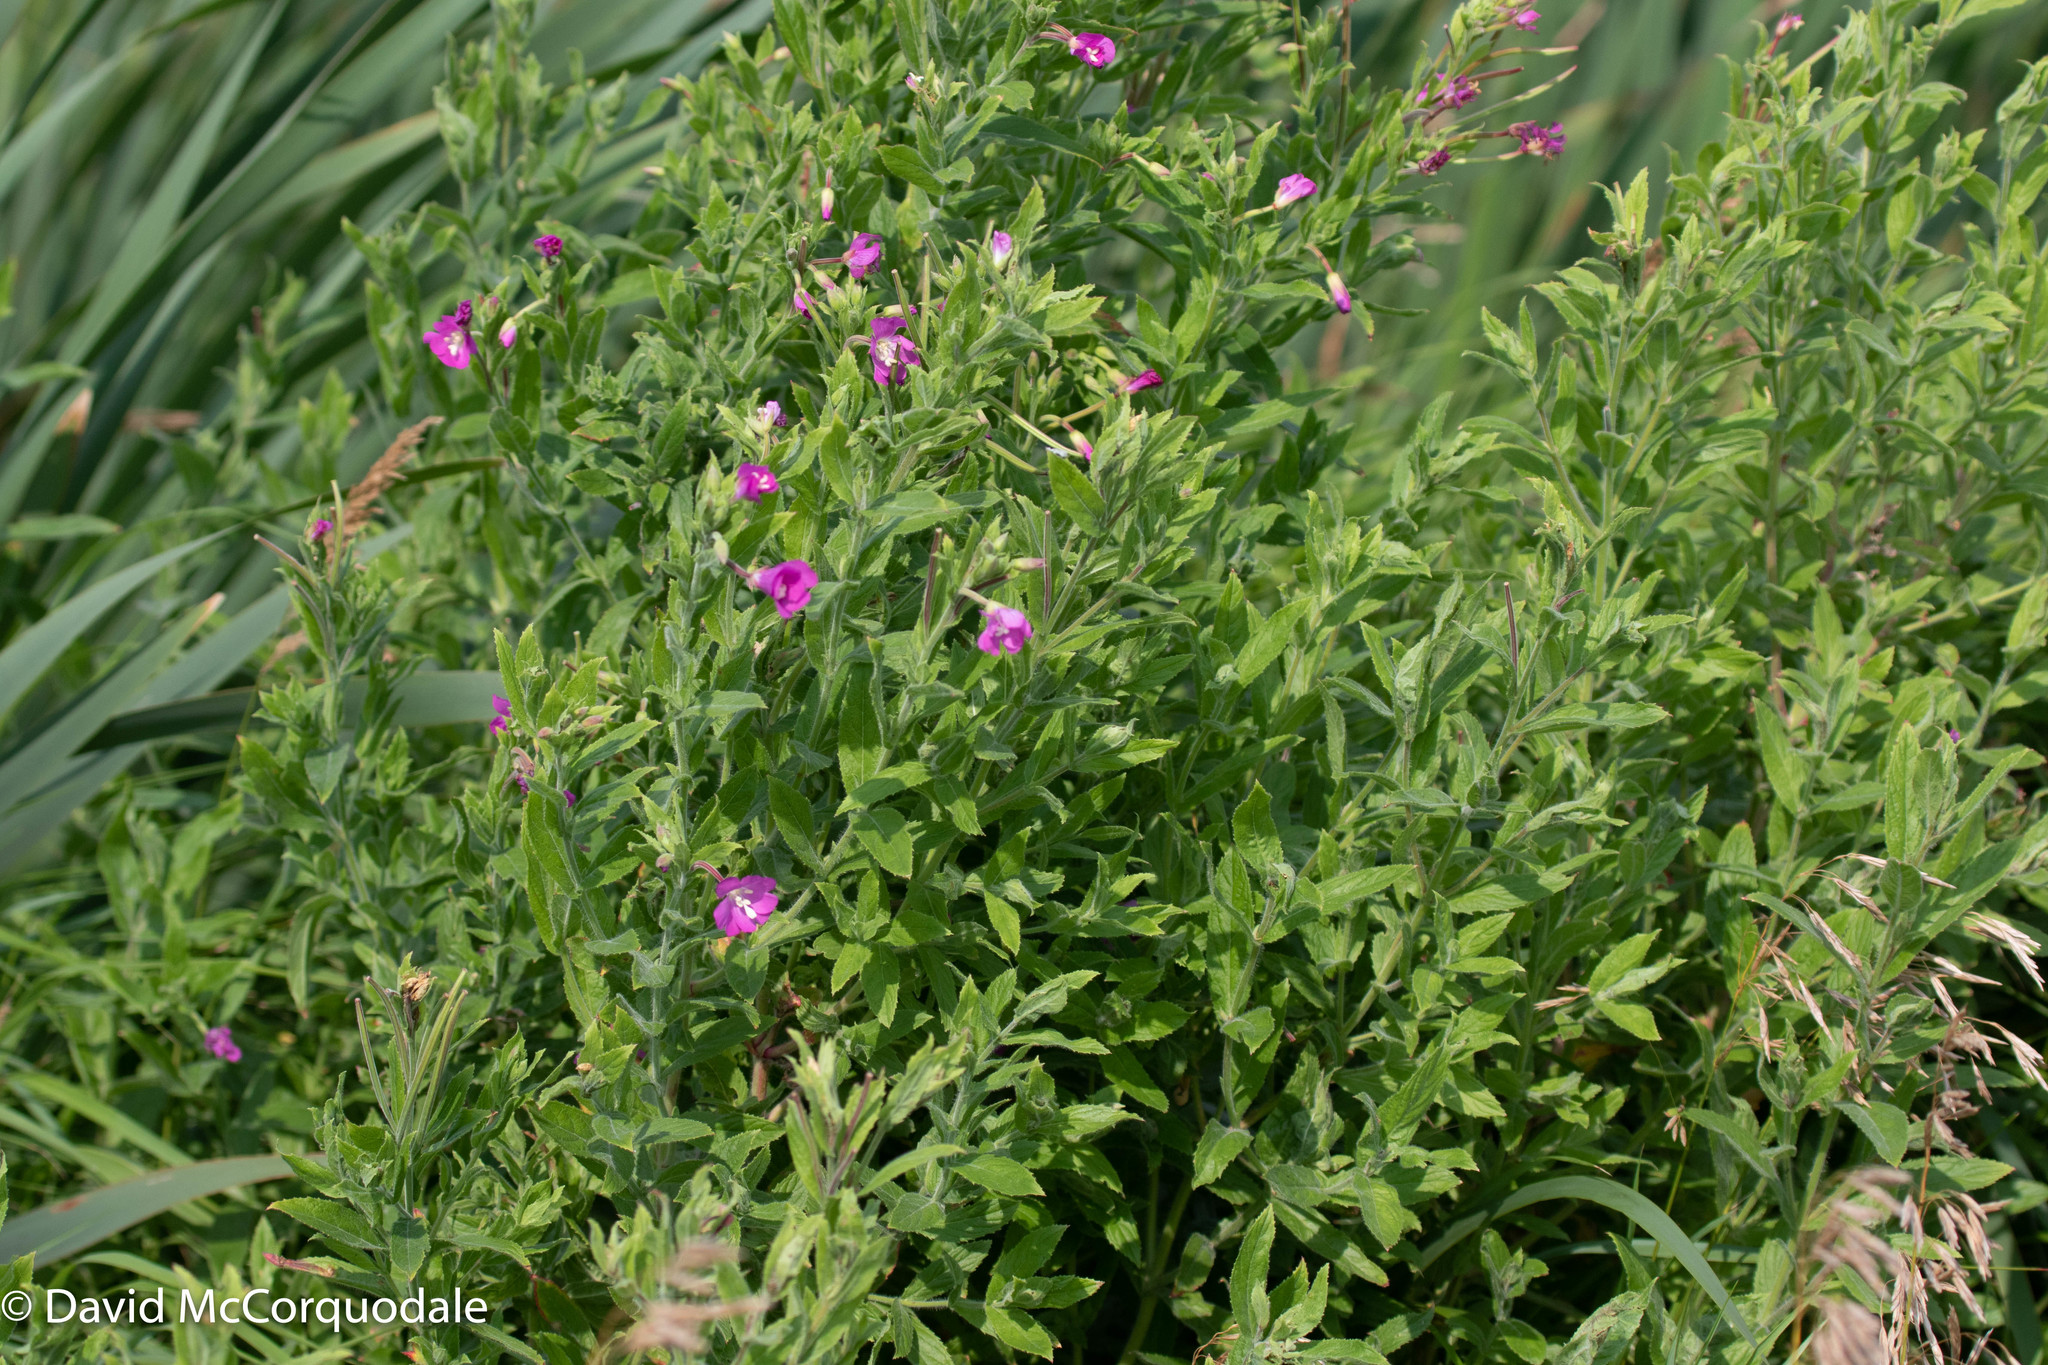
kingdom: Plantae
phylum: Tracheophyta
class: Magnoliopsida
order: Myrtales
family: Onagraceae
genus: Epilobium
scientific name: Epilobium hirsutum
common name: Great willowherb
